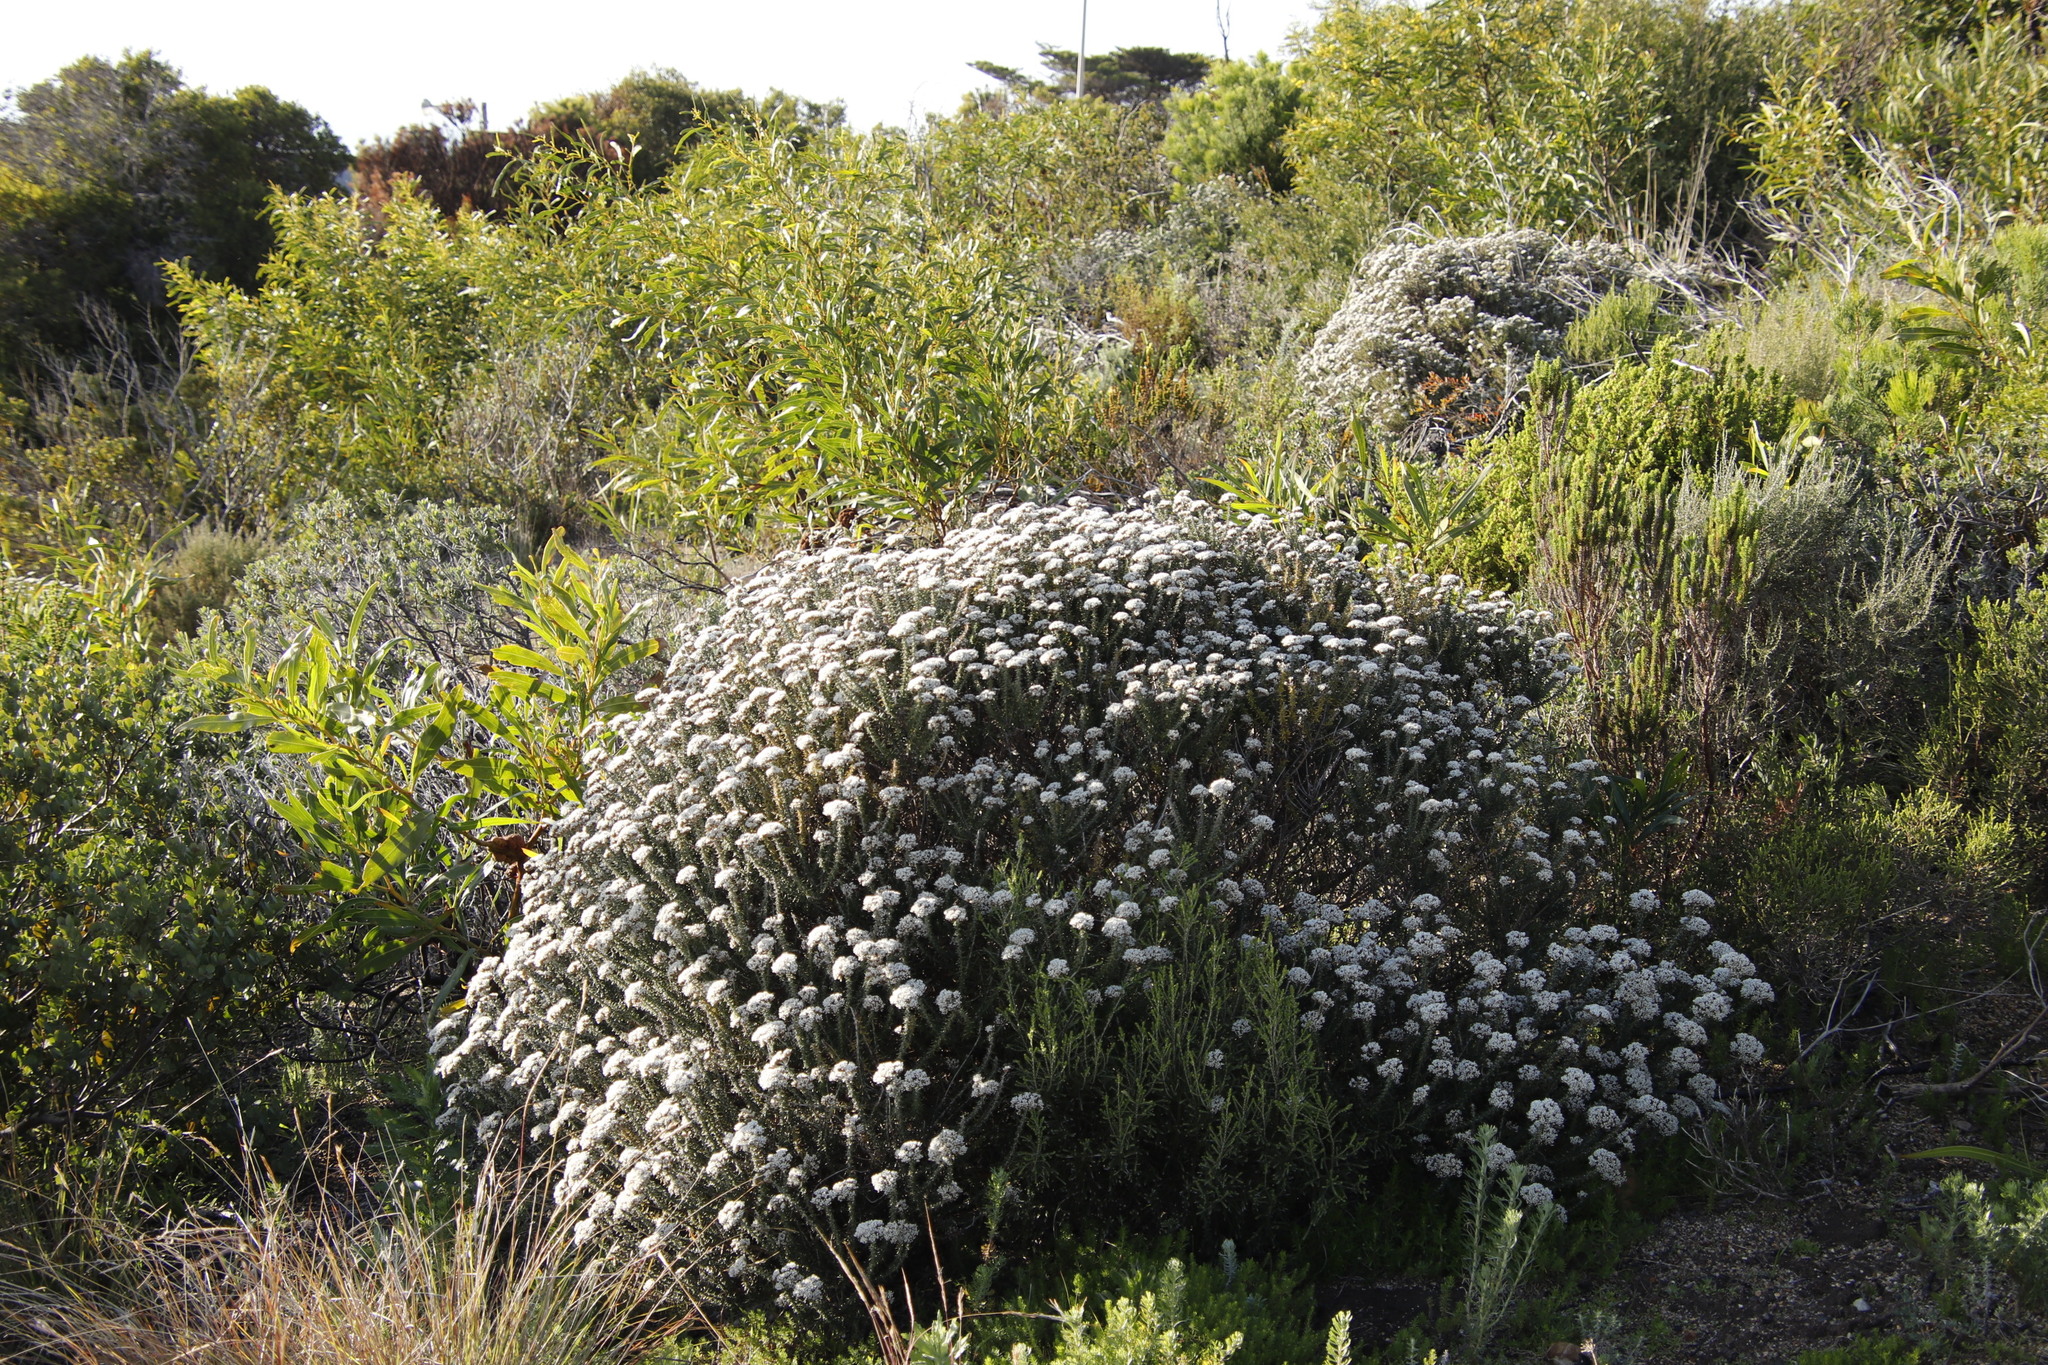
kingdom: Plantae
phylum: Tracheophyta
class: Magnoliopsida
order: Asterales
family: Asteraceae
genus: Metalasia
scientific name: Metalasia densa
